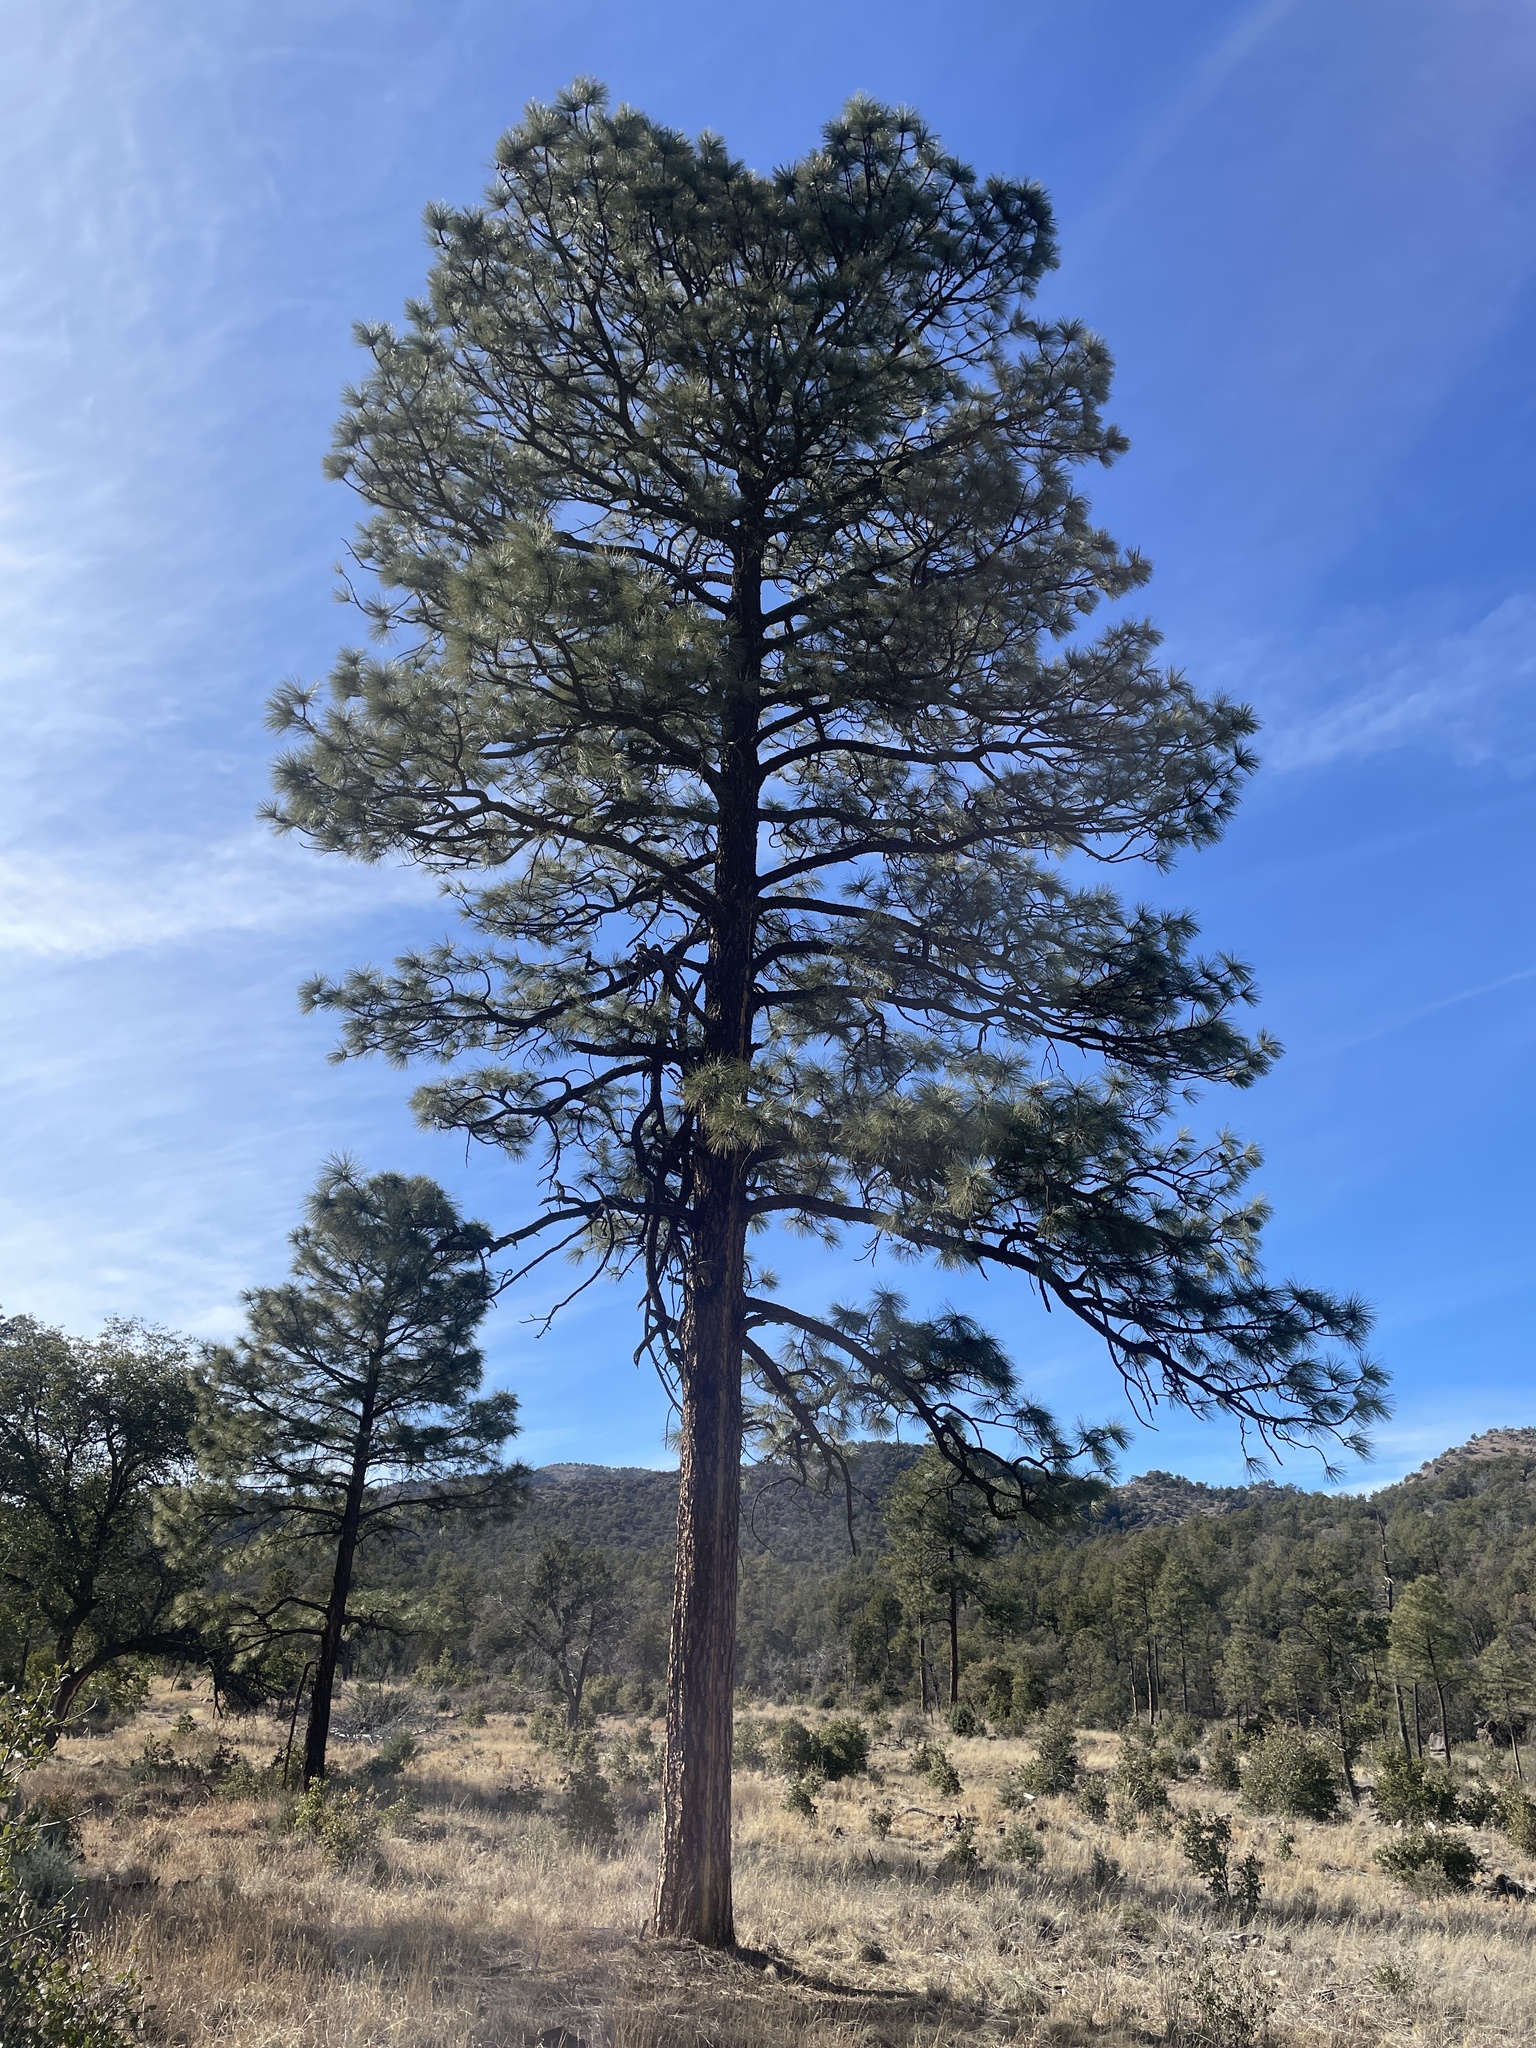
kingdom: Plantae
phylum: Tracheophyta
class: Pinopsida
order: Pinales
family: Pinaceae
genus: Pinus
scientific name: Pinus ponderosa
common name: Western yellow-pine
